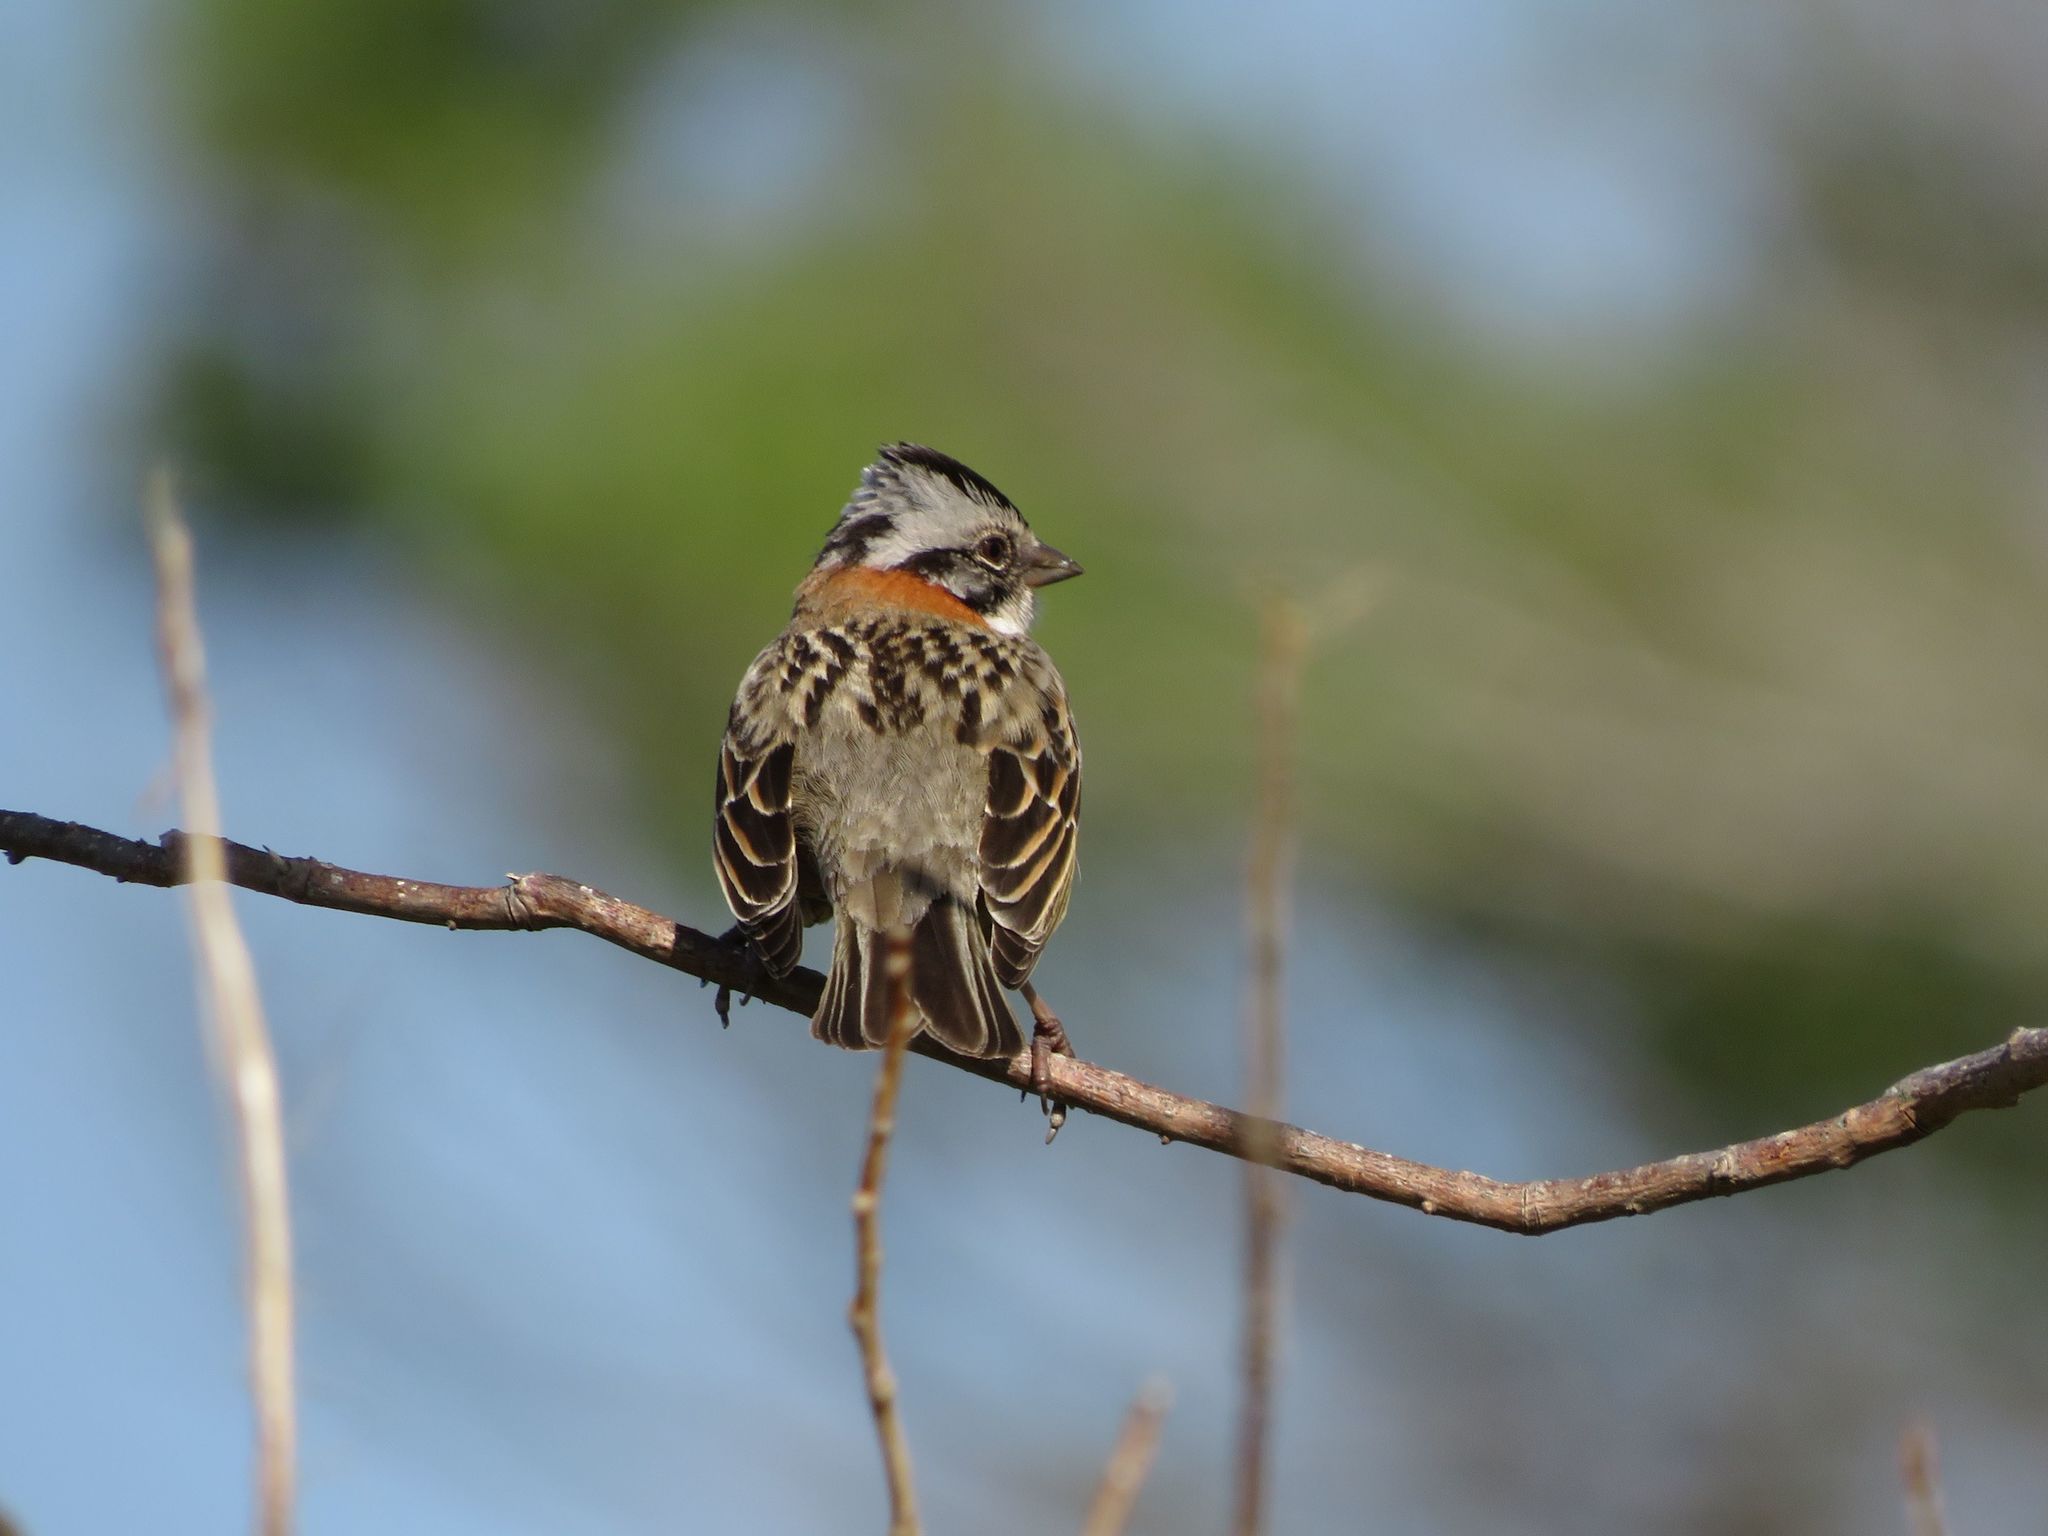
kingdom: Animalia
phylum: Chordata
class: Aves
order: Passeriformes
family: Passerellidae
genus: Zonotrichia
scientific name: Zonotrichia capensis
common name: Rufous-collared sparrow
